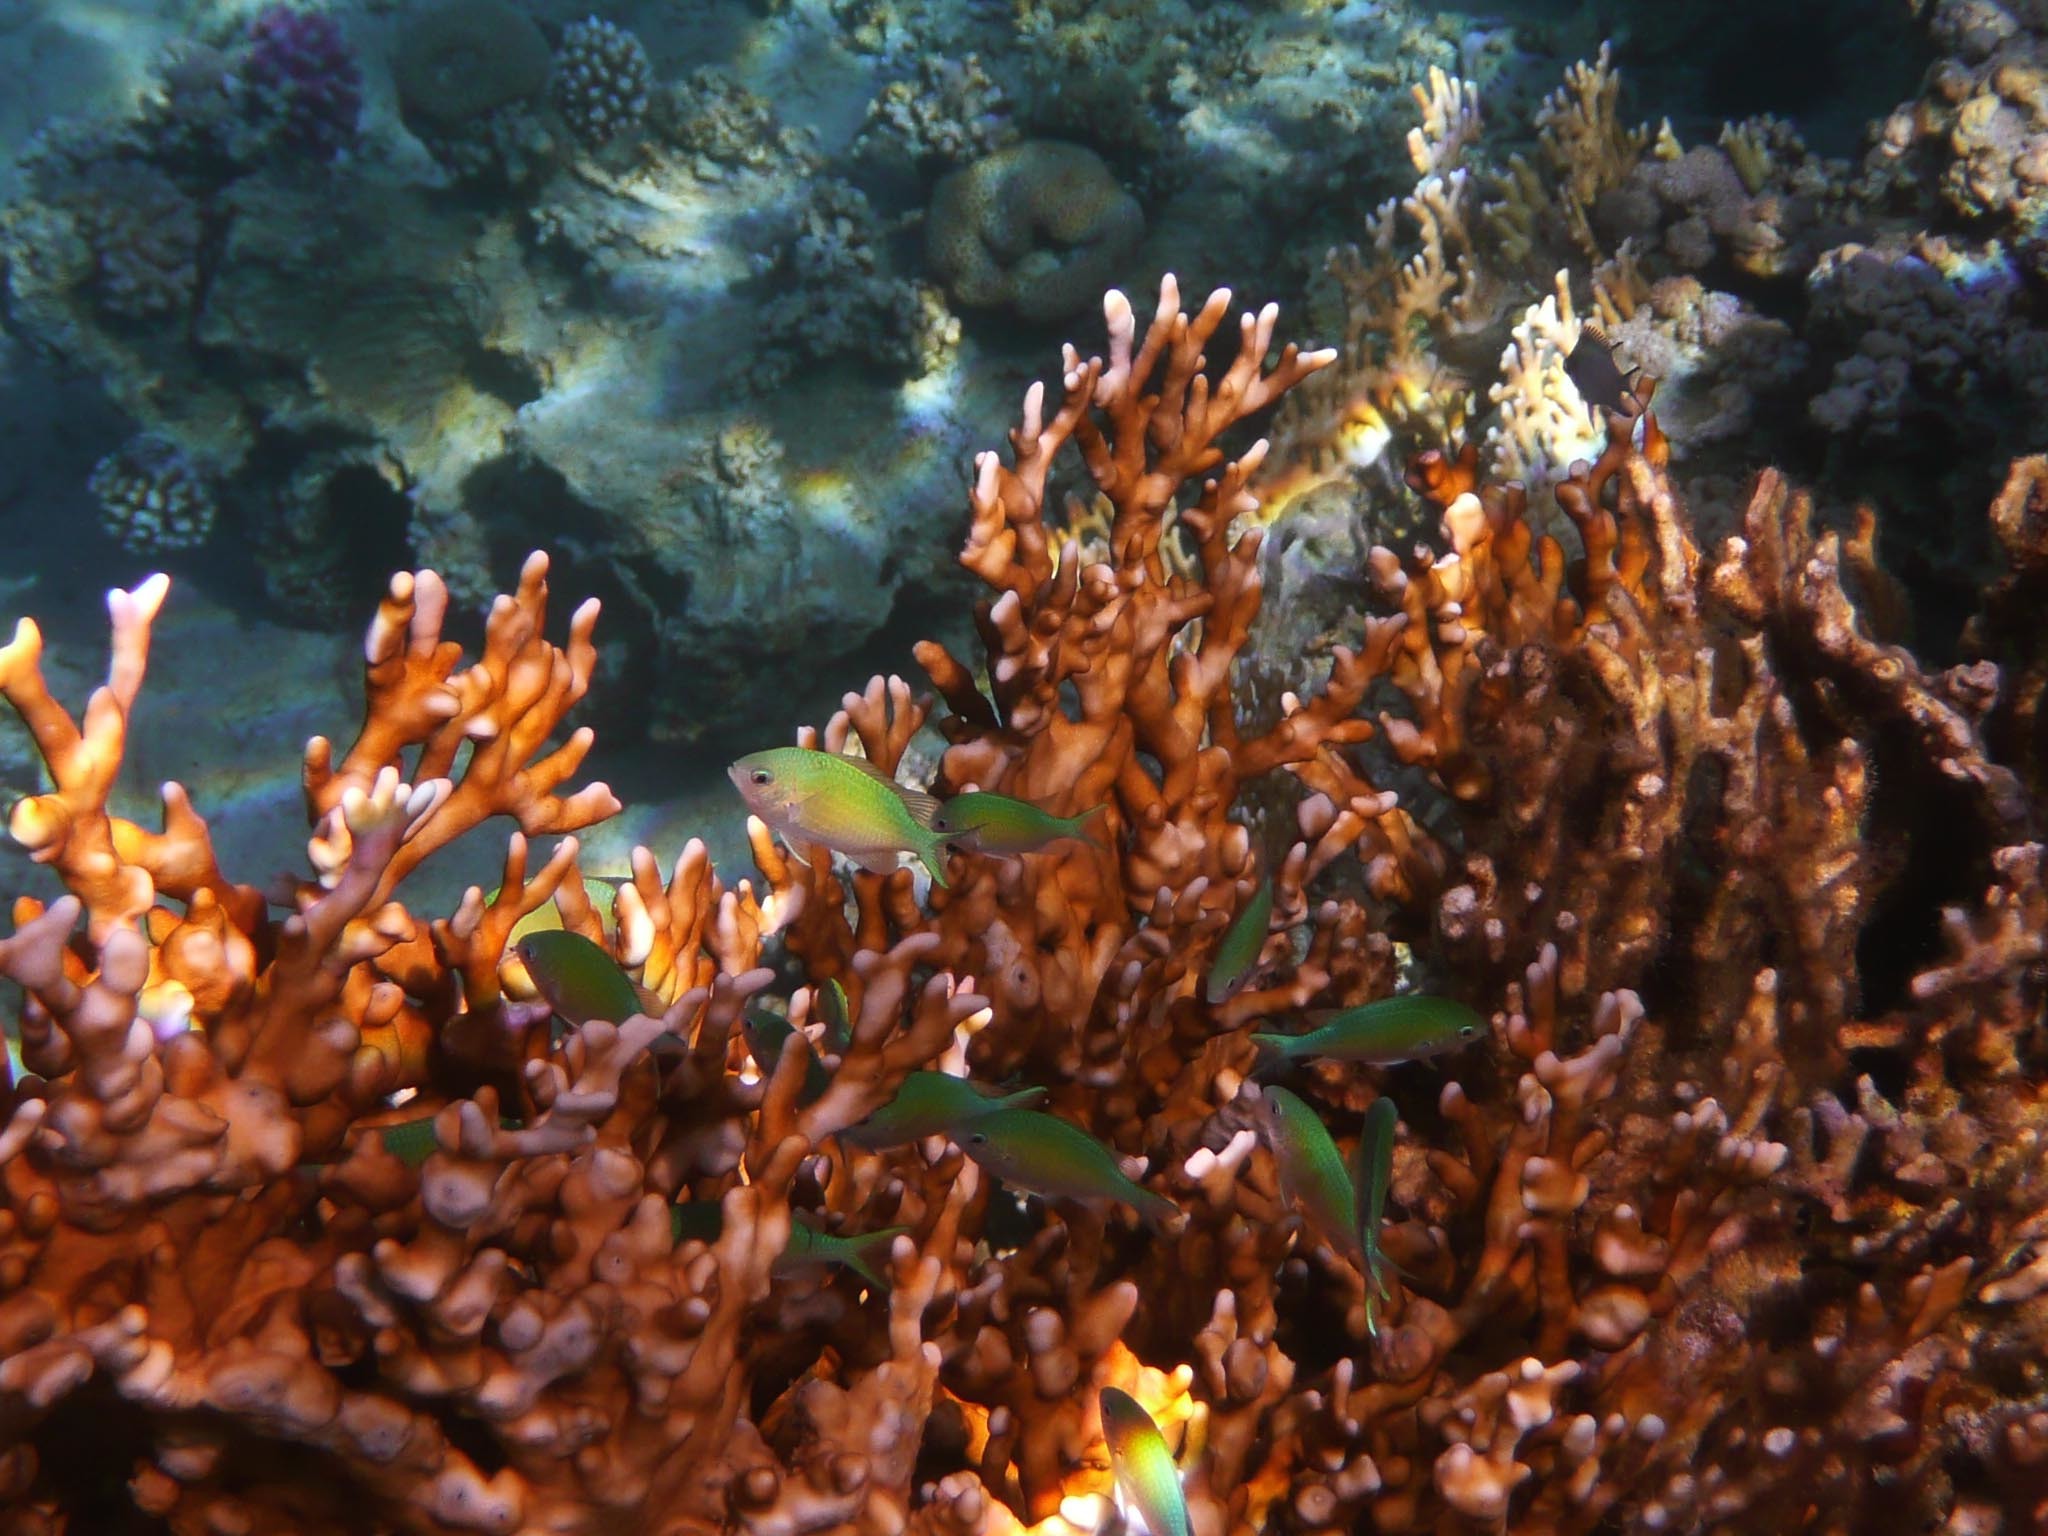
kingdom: Animalia
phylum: Chordata
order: Perciformes
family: Pomacentridae
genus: Chromis
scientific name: Chromis viridis
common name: Blue-green chromis
